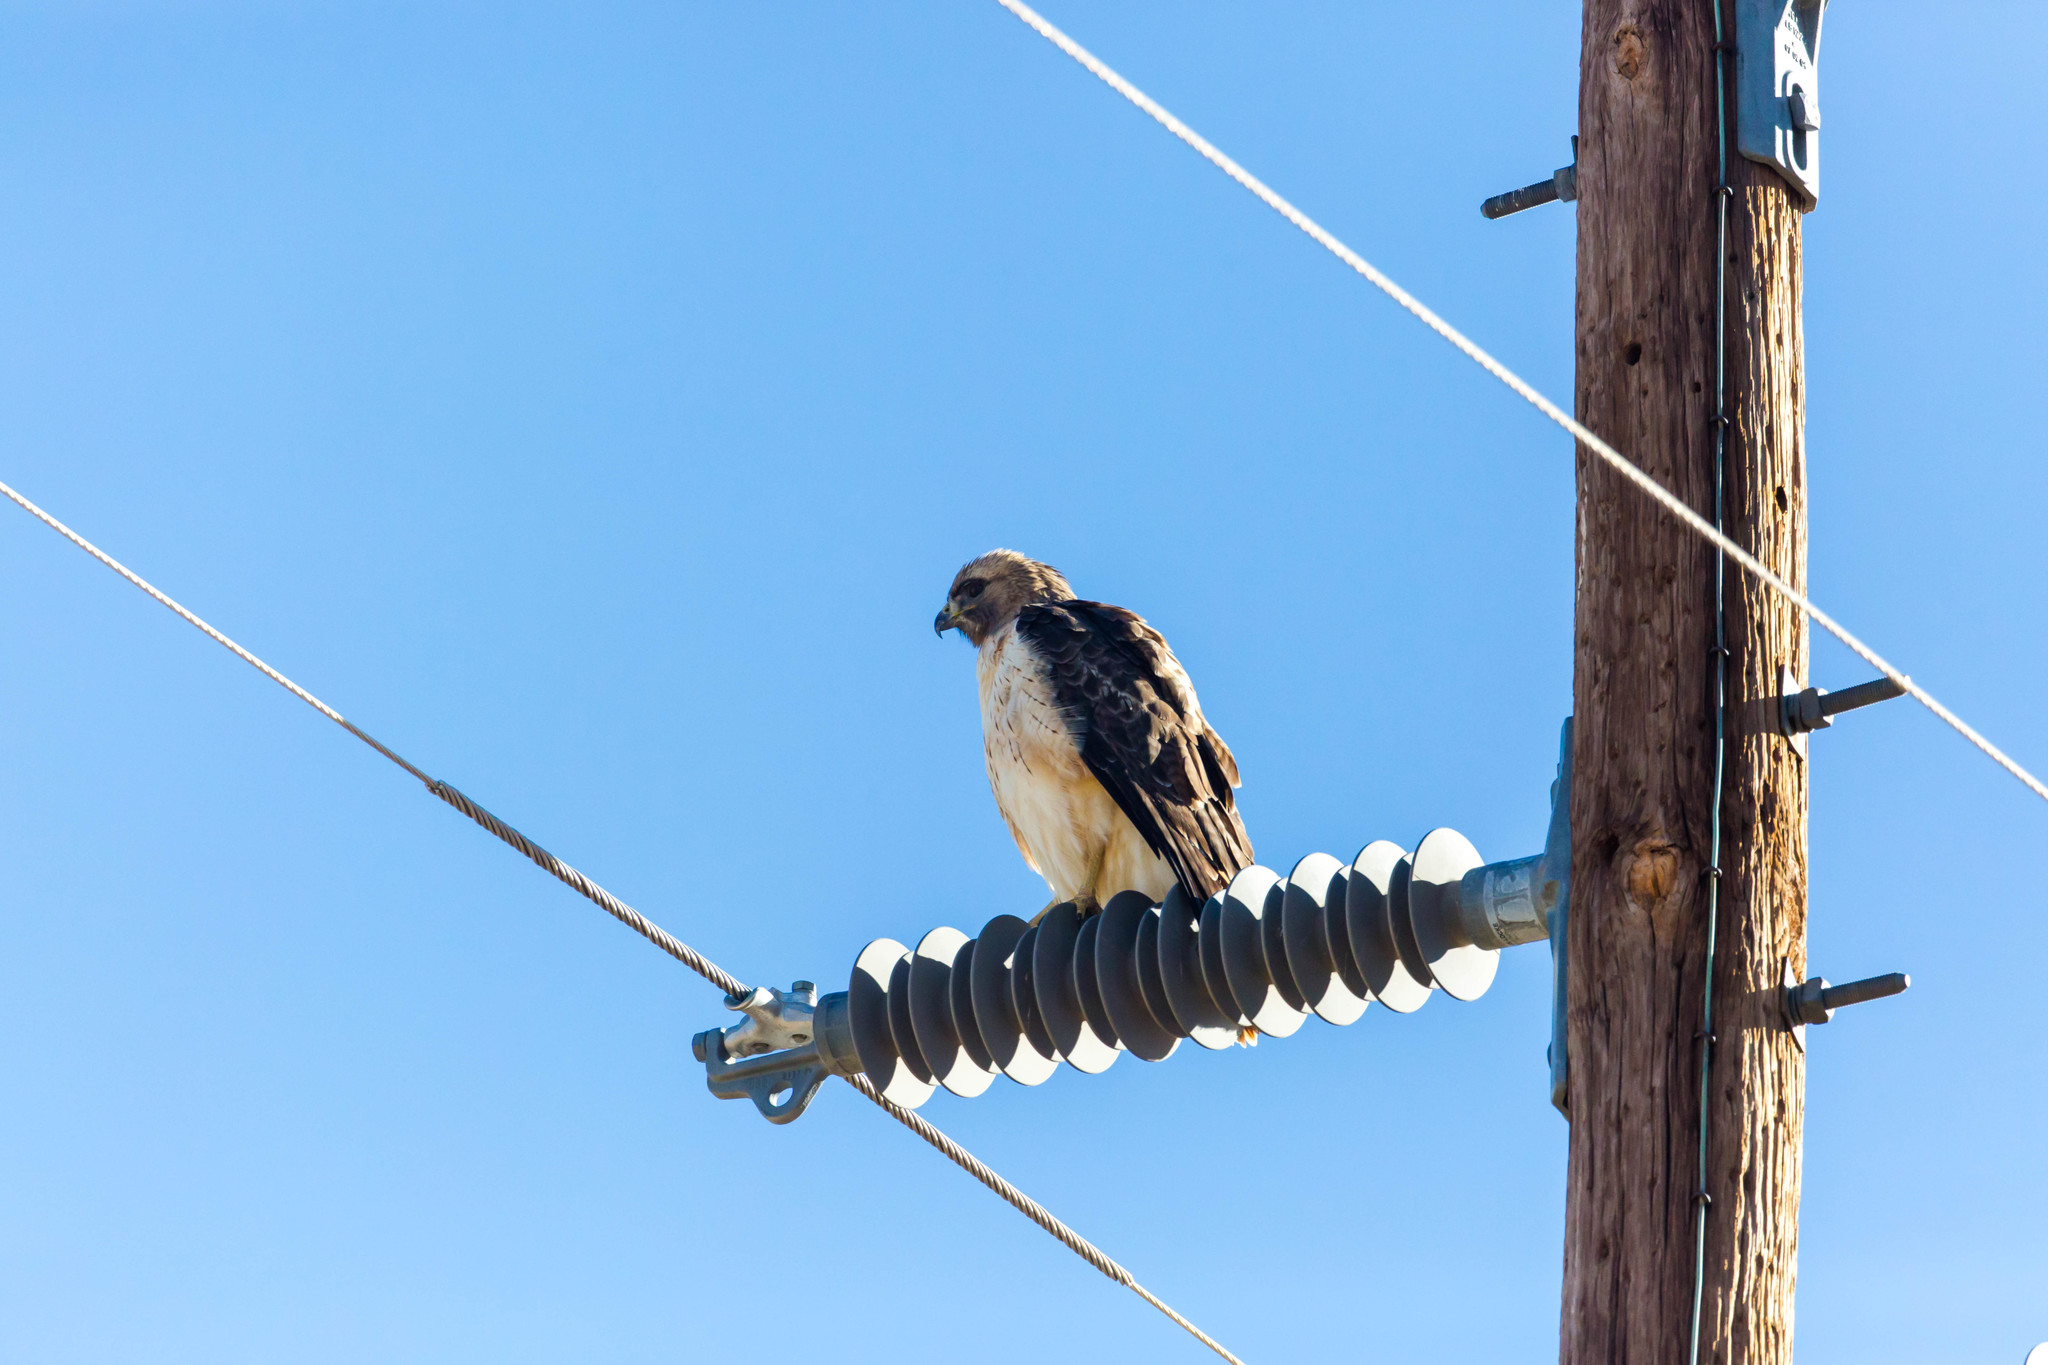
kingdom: Animalia
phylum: Chordata
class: Aves
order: Accipitriformes
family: Accipitridae
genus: Buteo
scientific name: Buteo jamaicensis
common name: Red-tailed hawk
